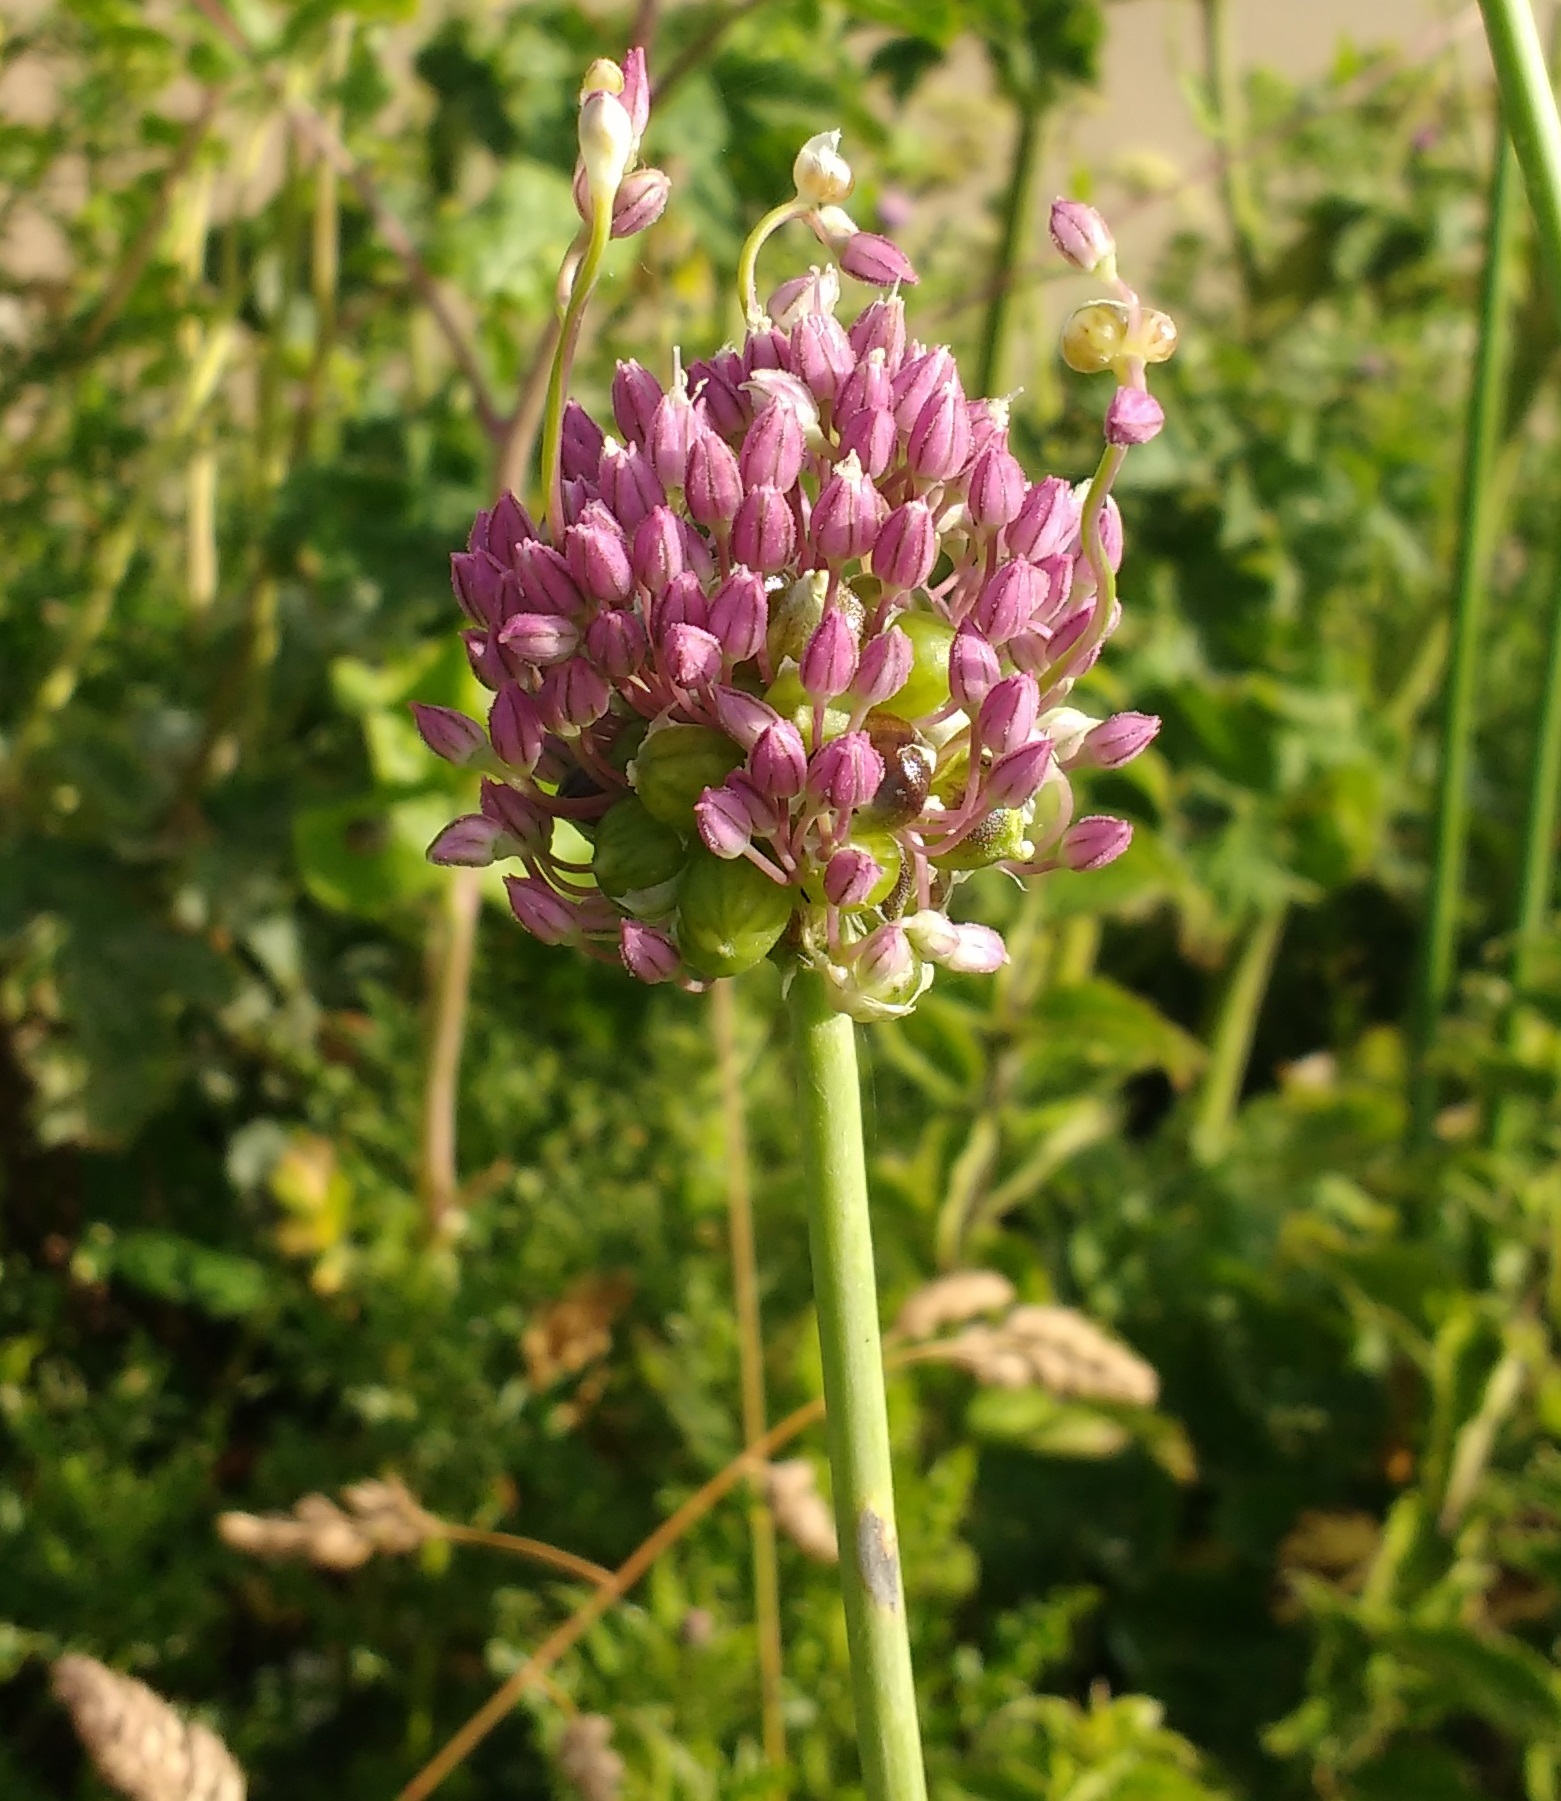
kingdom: Plantae
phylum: Tracheophyta
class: Liliopsida
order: Asparagales
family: Amaryllidaceae
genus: Allium
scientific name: Allium ampeloprasum
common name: Wild leek
